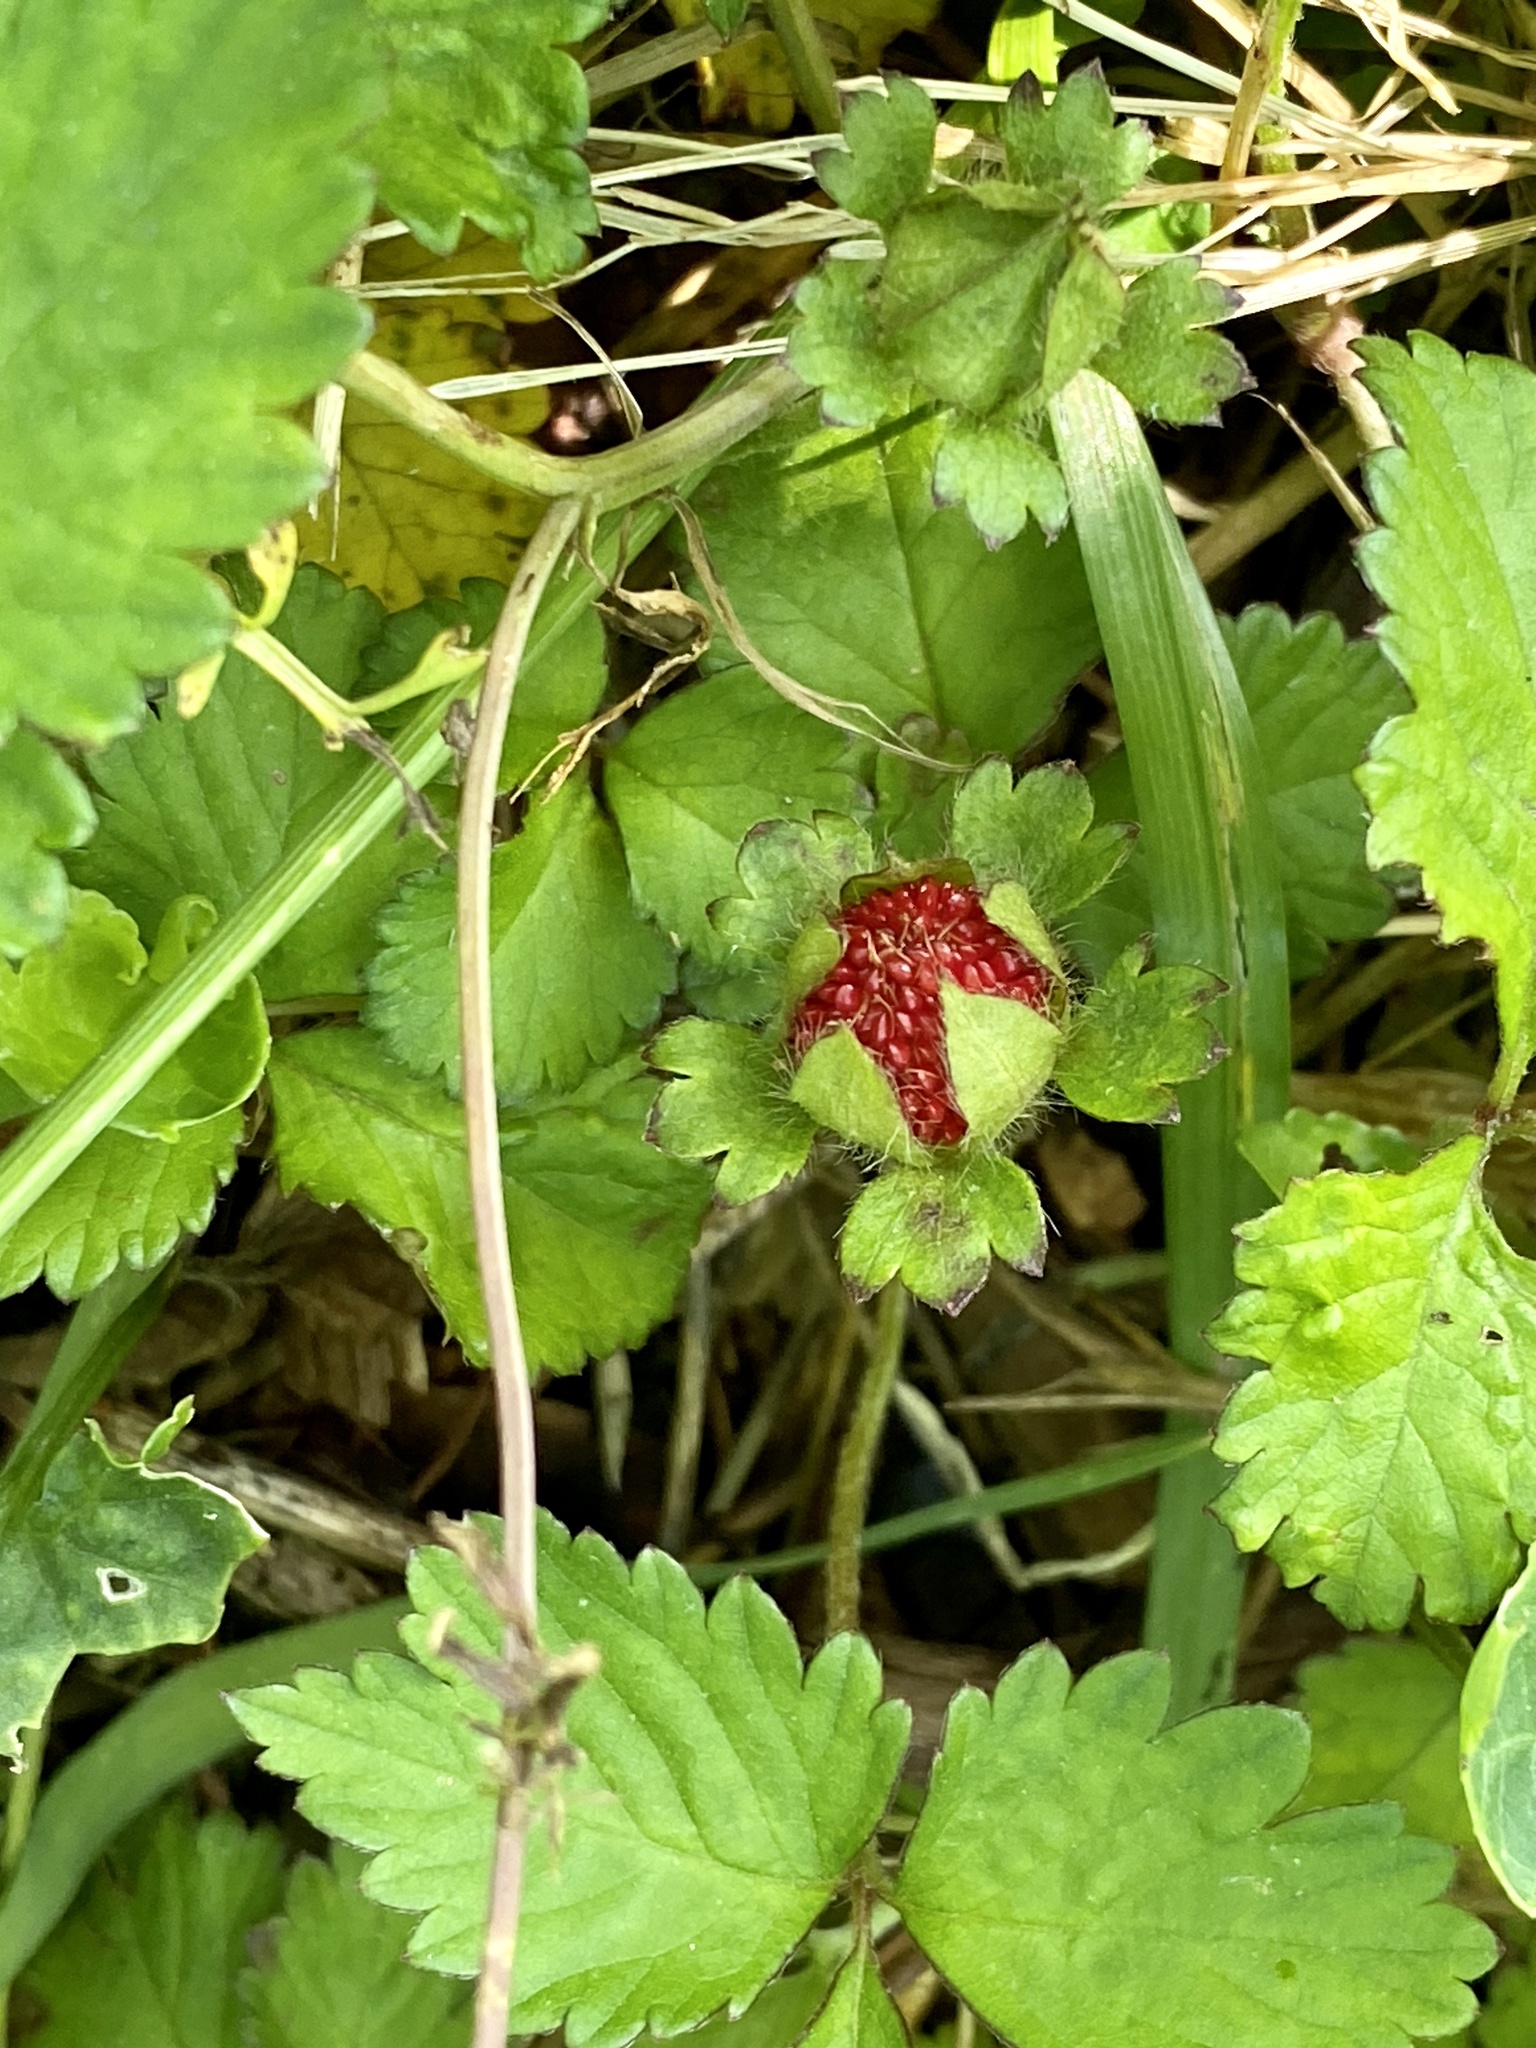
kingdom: Plantae
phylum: Tracheophyta
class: Magnoliopsida
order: Rosales
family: Rosaceae
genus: Potentilla
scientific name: Potentilla indica
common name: Yellow-flowered strawberry
